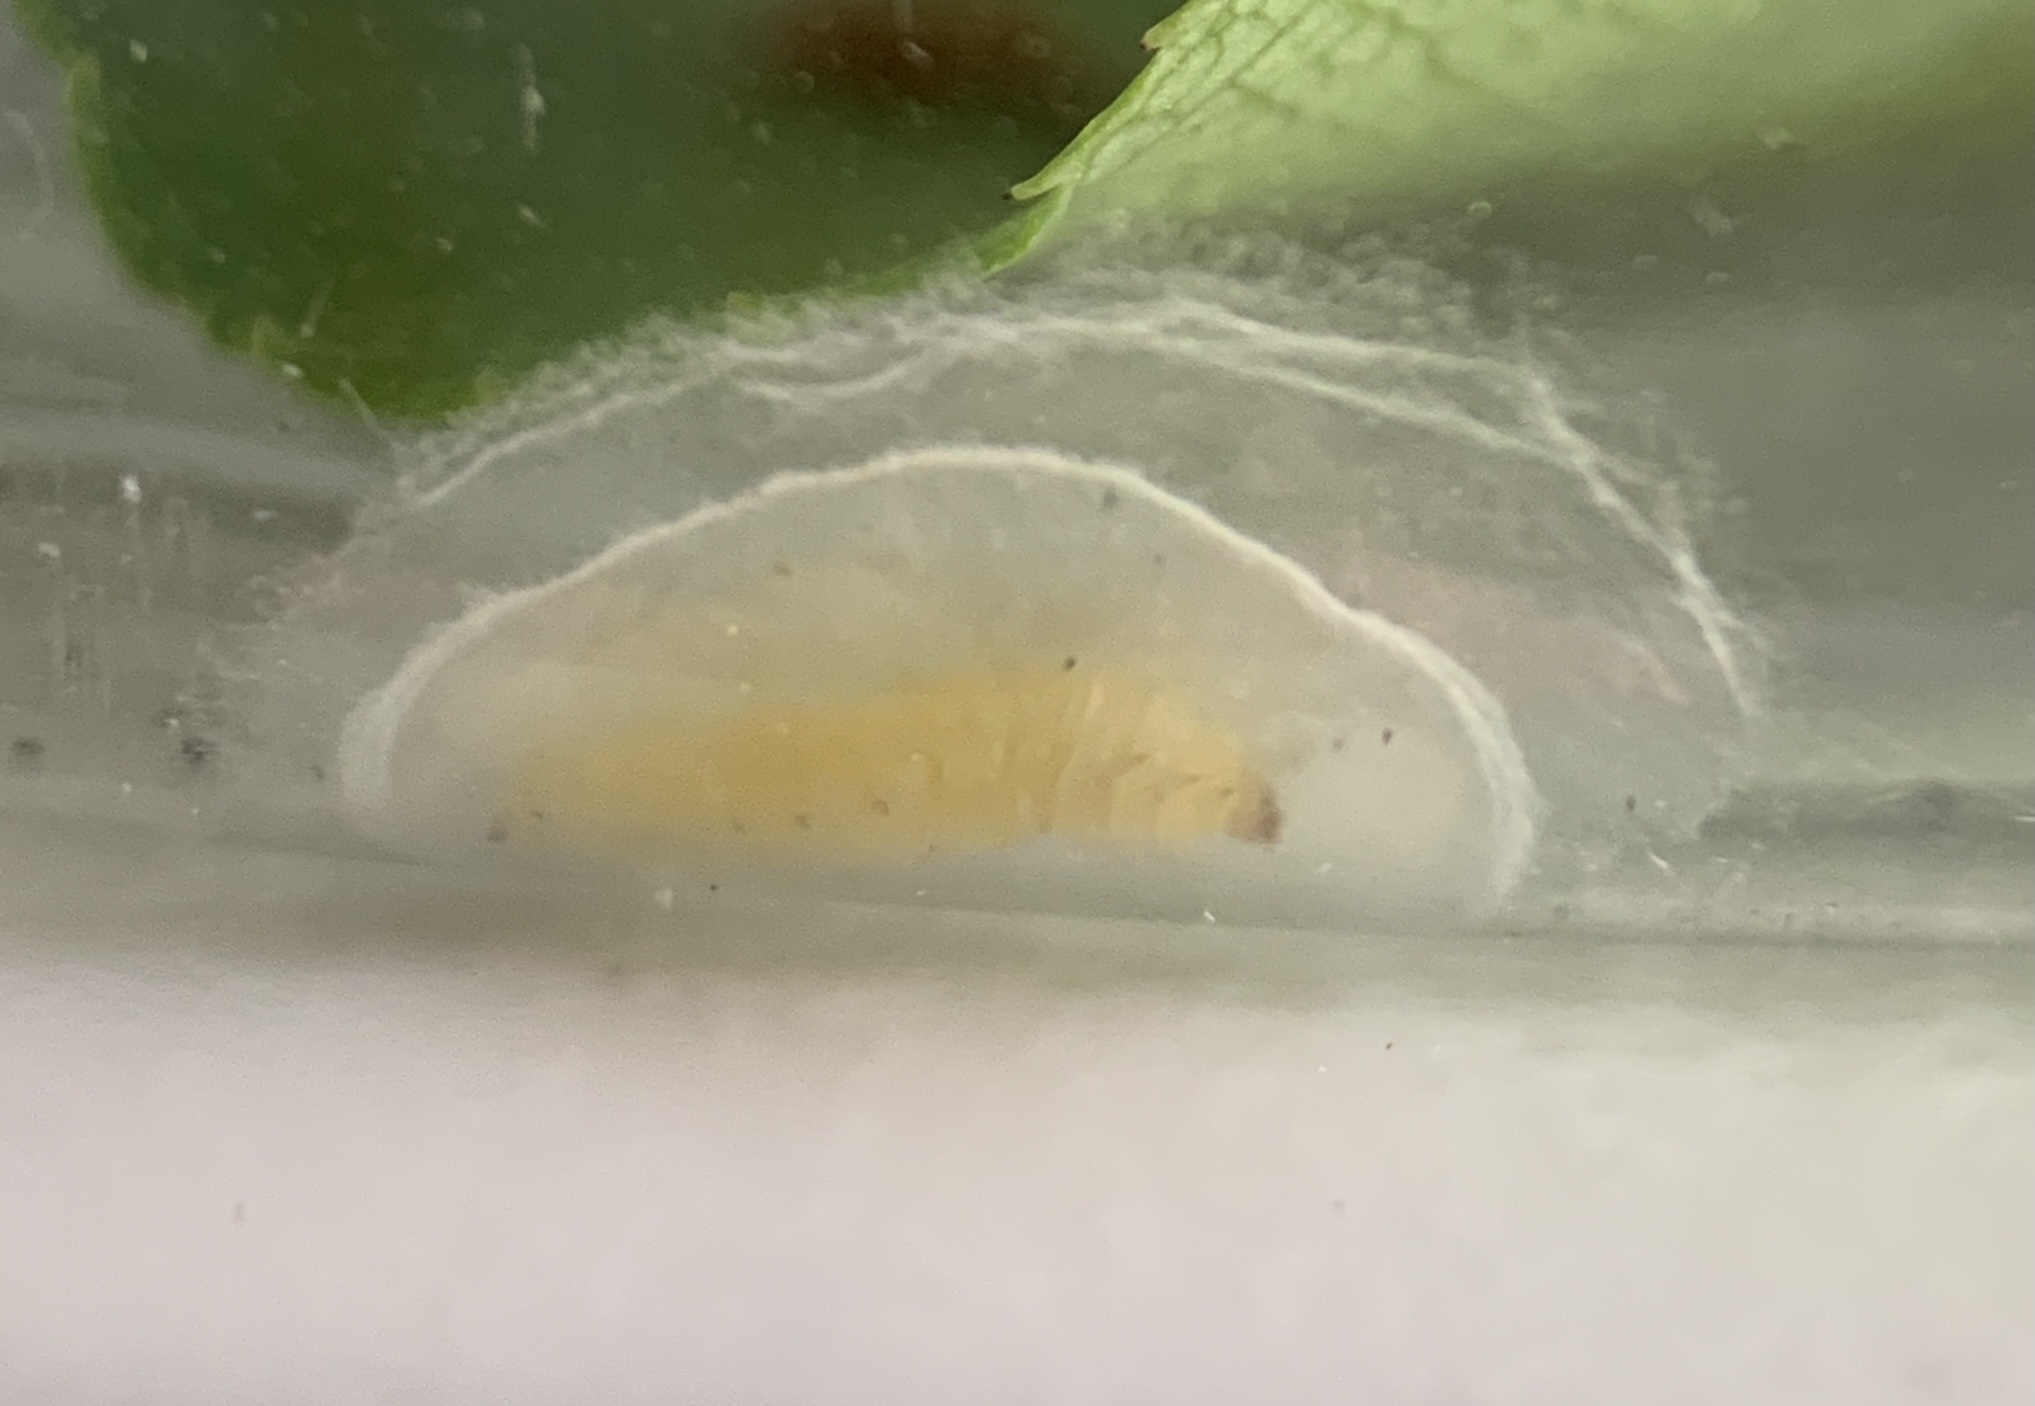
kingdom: Animalia
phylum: Arthropoda
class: Insecta
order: Lepidoptera
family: Gracillariidae
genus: Caloptilia
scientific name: Caloptilia serotinella
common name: Cherry leafroller moth
